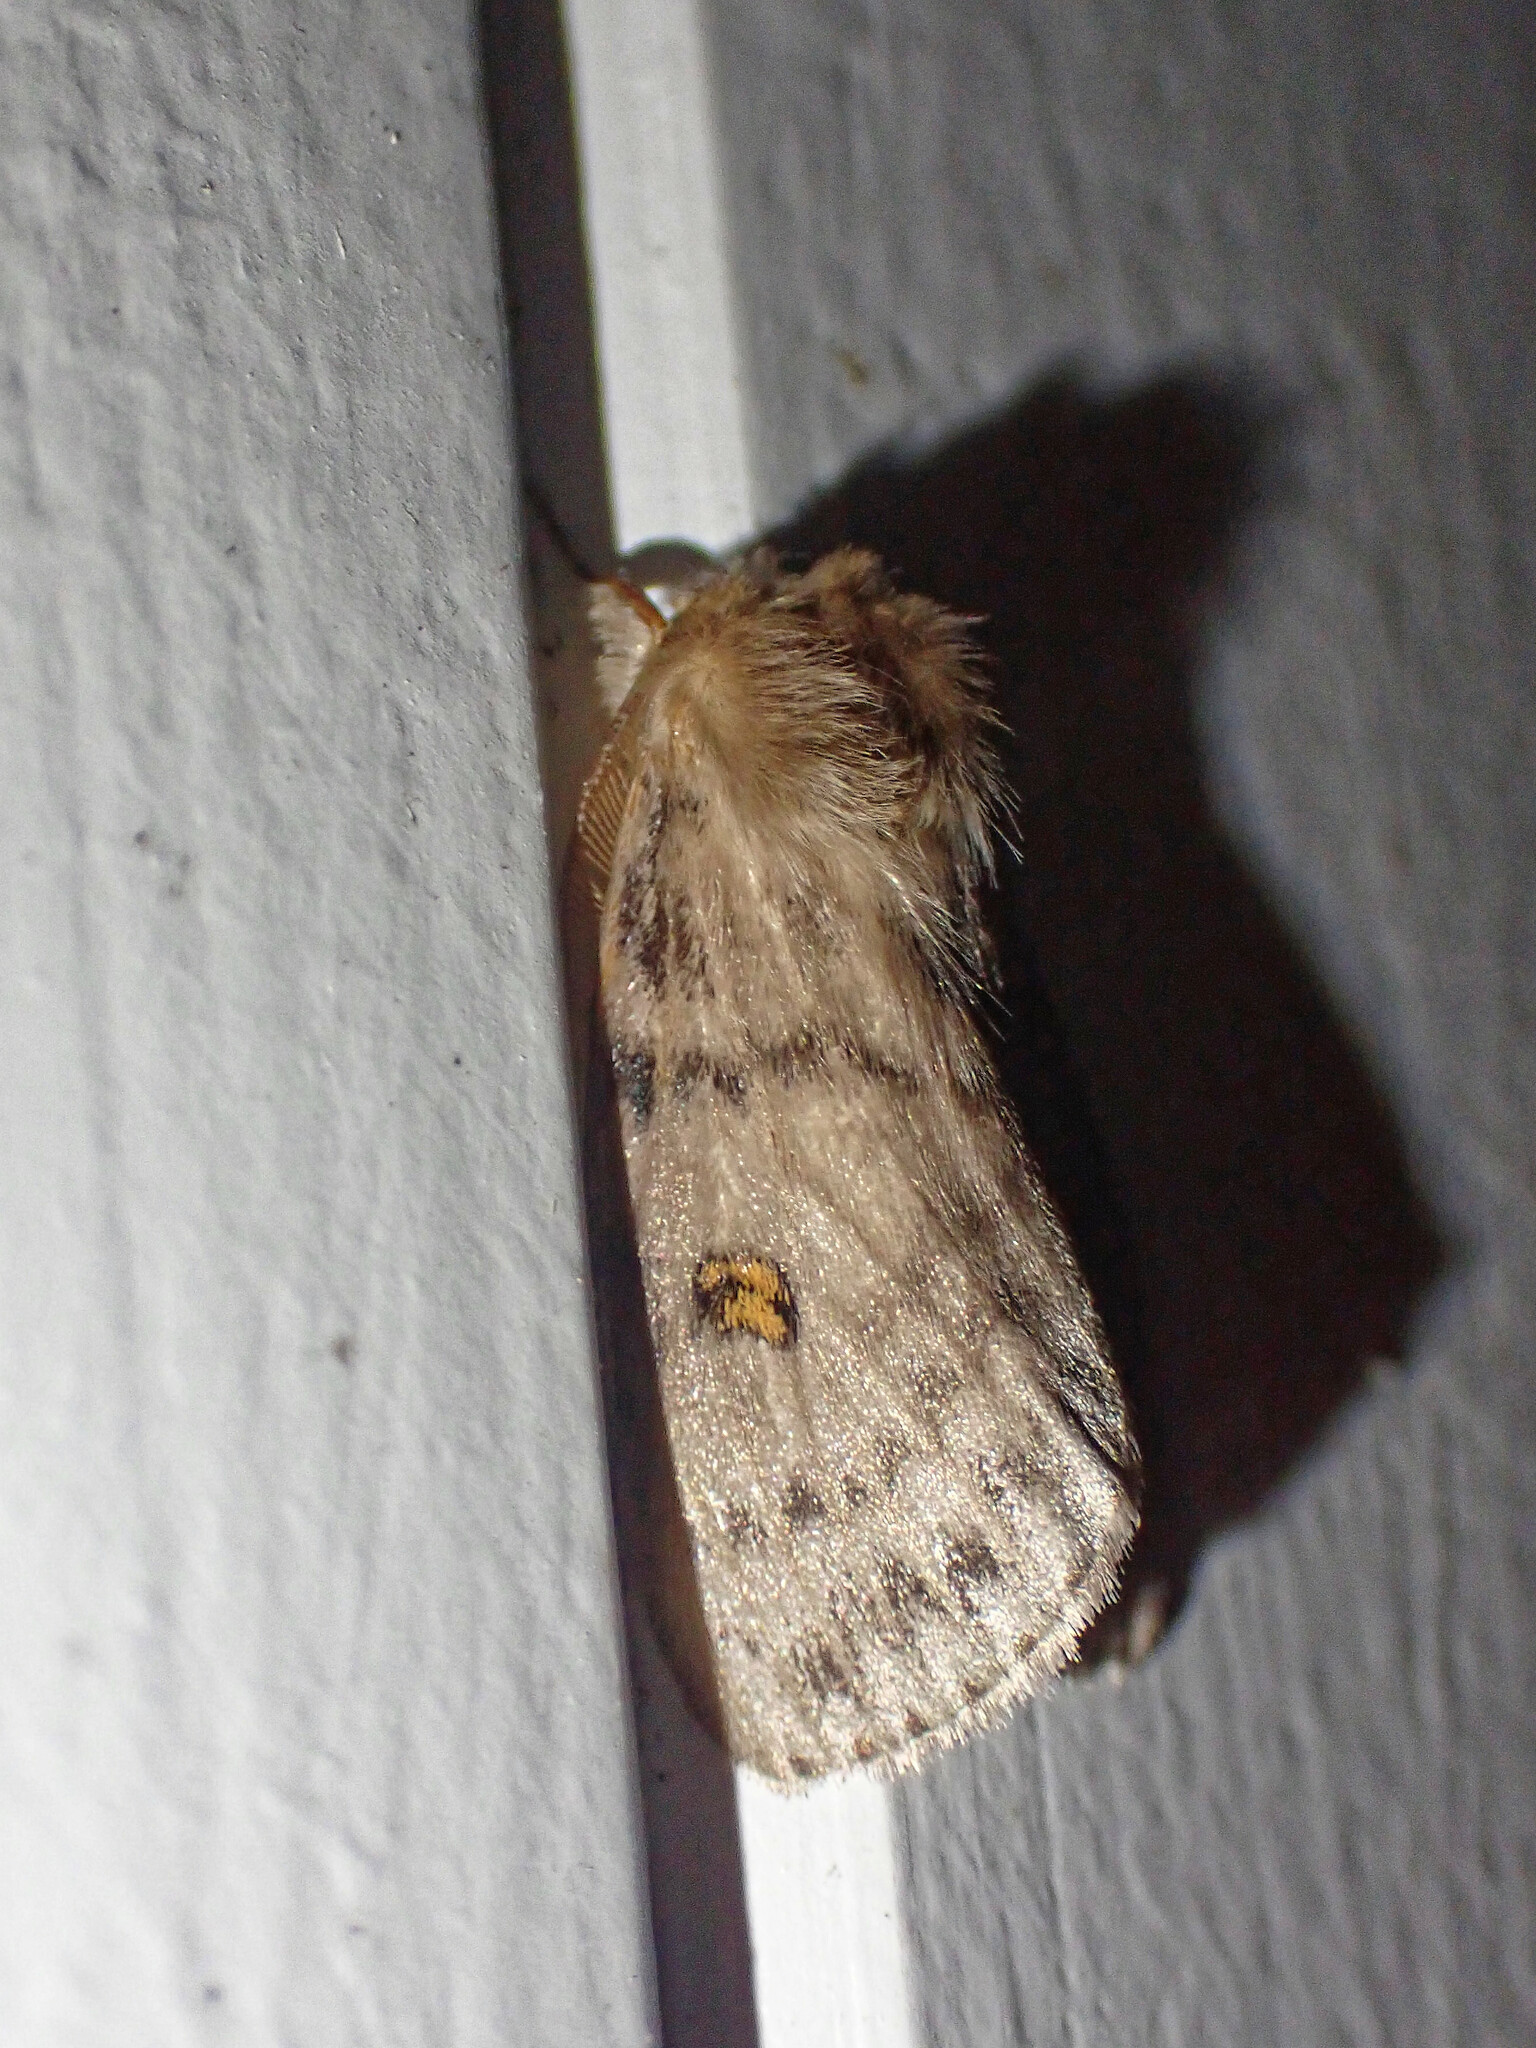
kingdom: Animalia
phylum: Arthropoda
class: Insecta
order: Lepidoptera
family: Erebidae
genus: Leptocneria
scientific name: Leptocneria reducta
